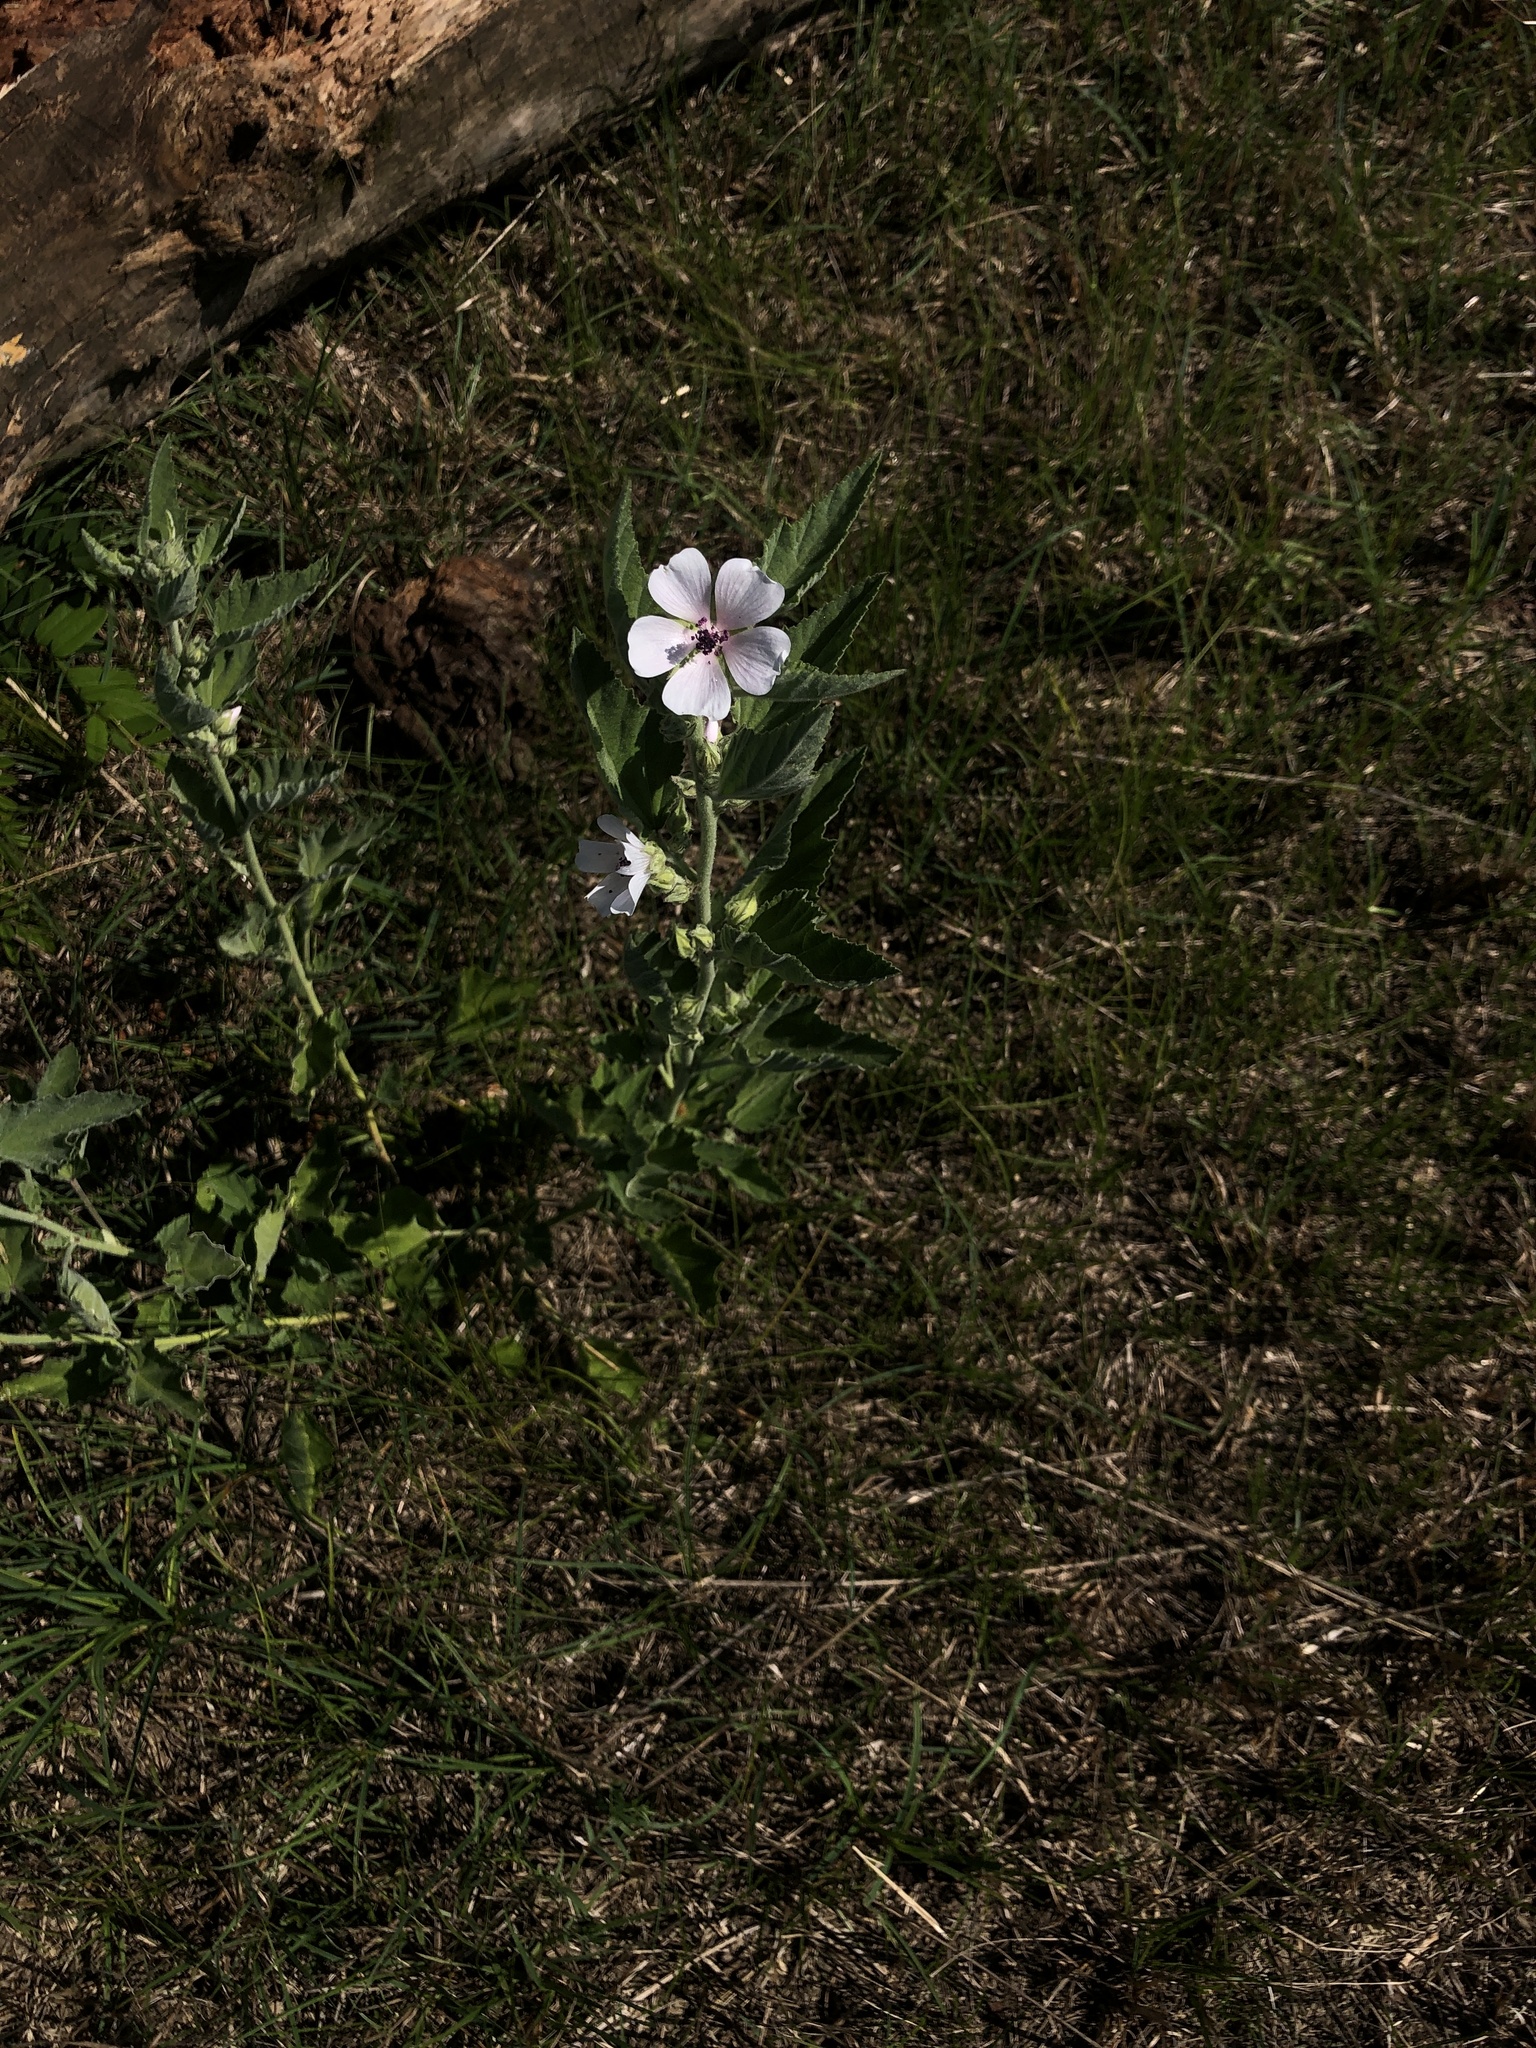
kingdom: Plantae
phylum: Tracheophyta
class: Magnoliopsida
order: Malvales
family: Malvaceae
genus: Althaea
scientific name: Althaea officinalis
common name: Marsh-mallow
